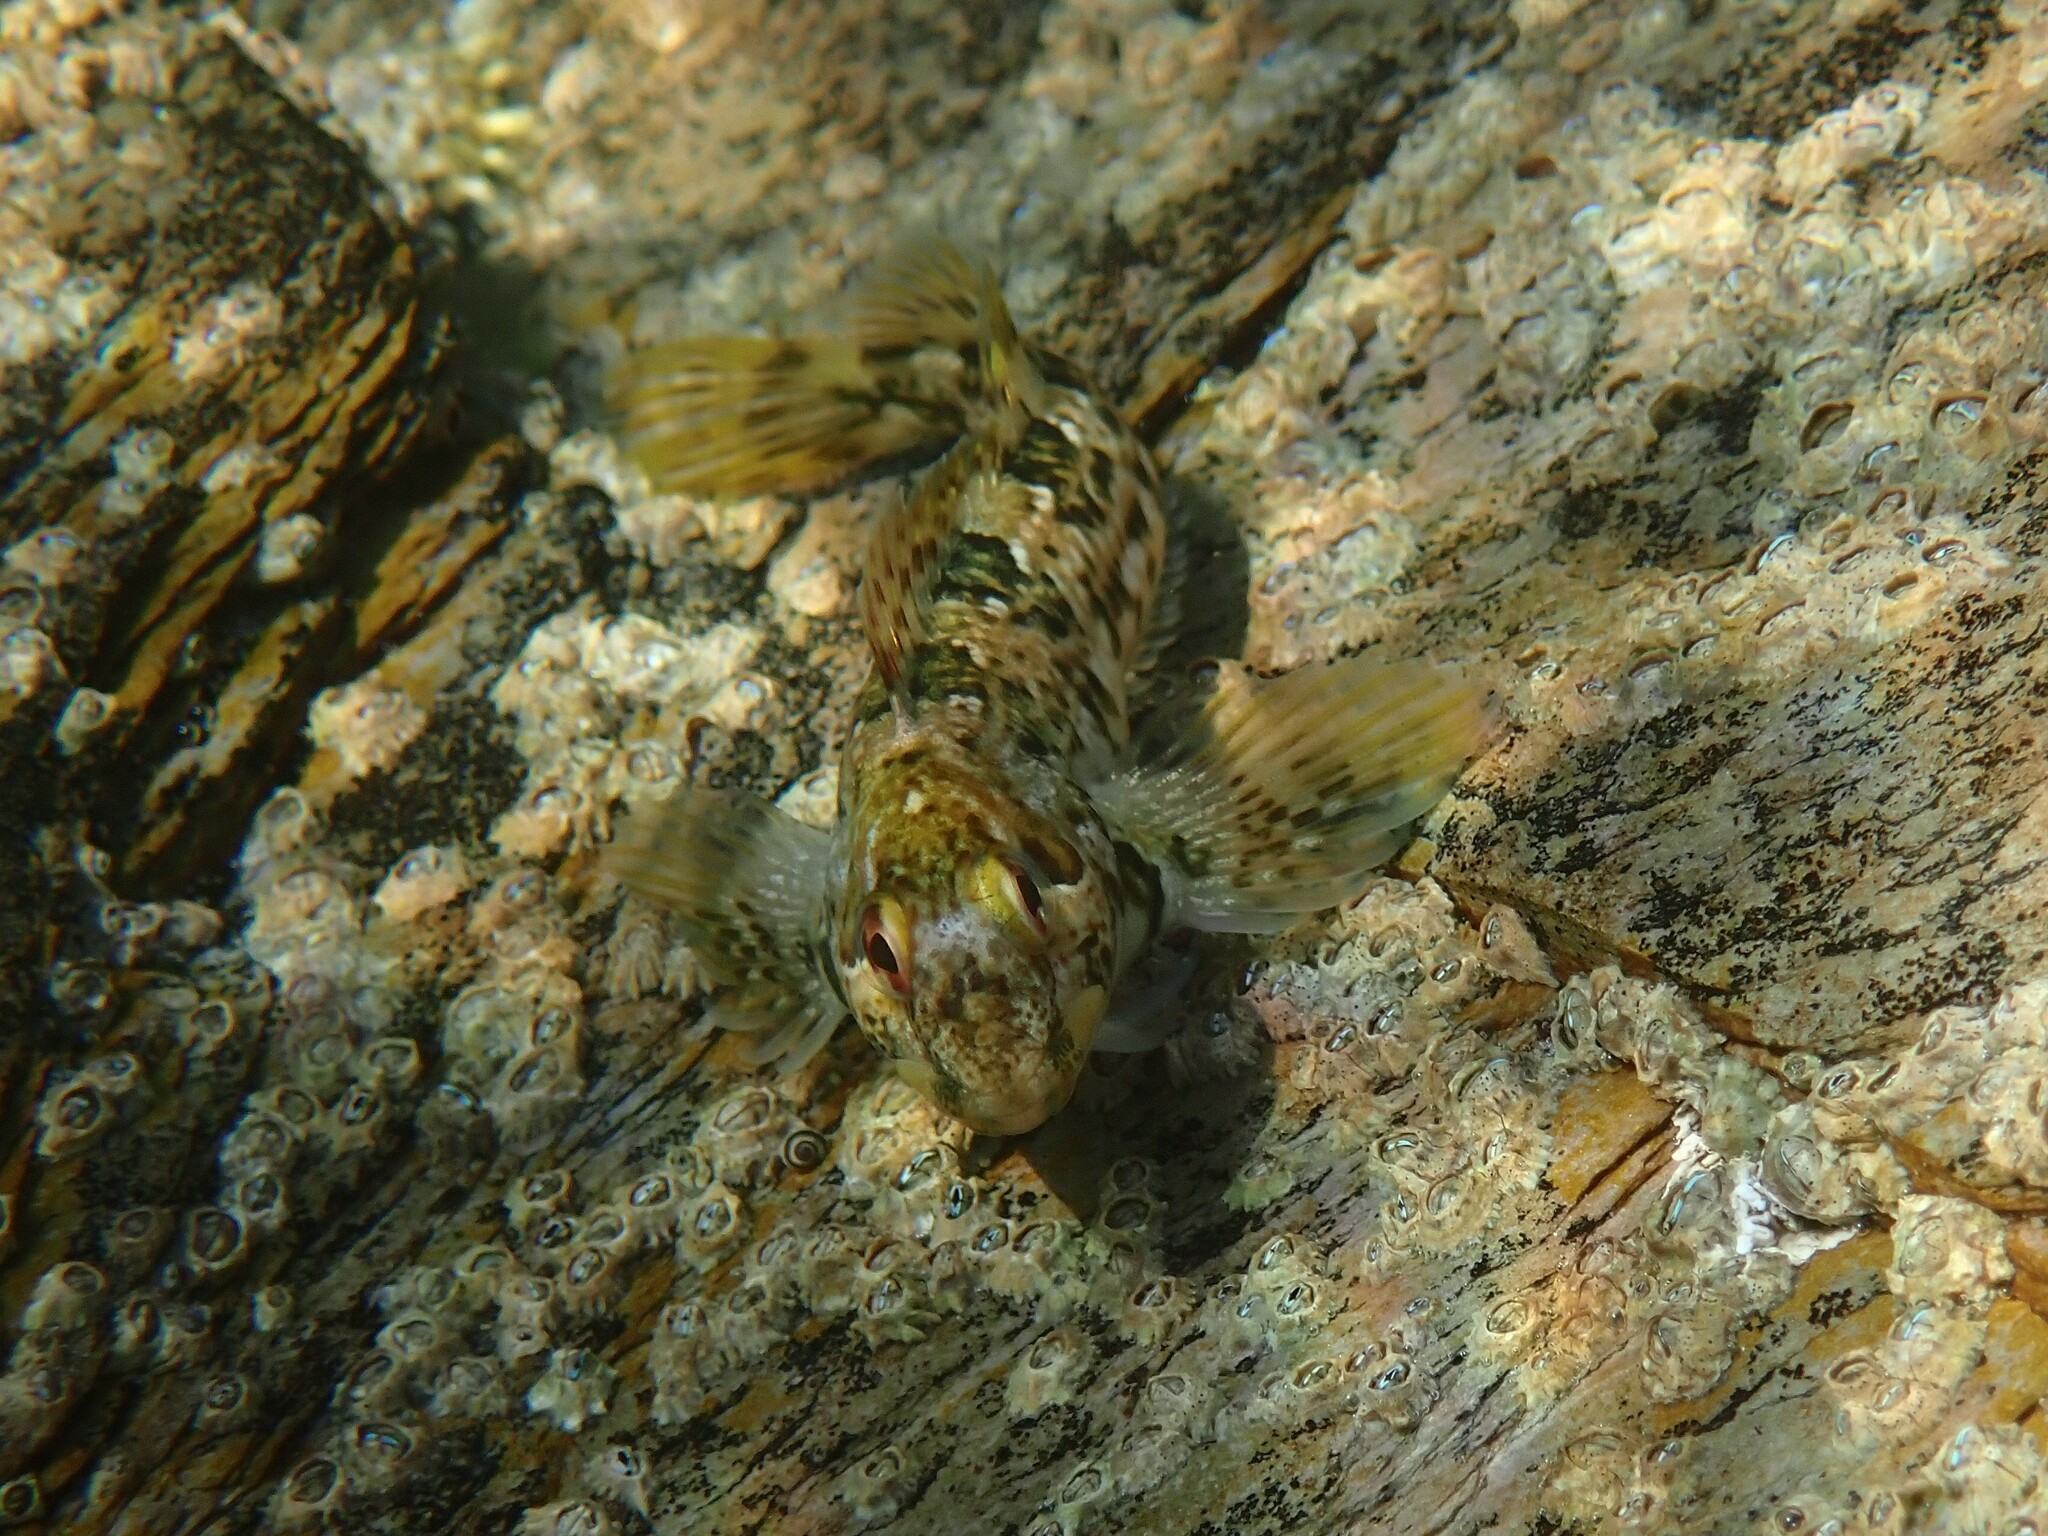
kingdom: Animalia
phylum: Chordata
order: Perciformes
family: Blenniidae
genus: Lipophrys
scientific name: Lipophrys pholis
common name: Shanny
